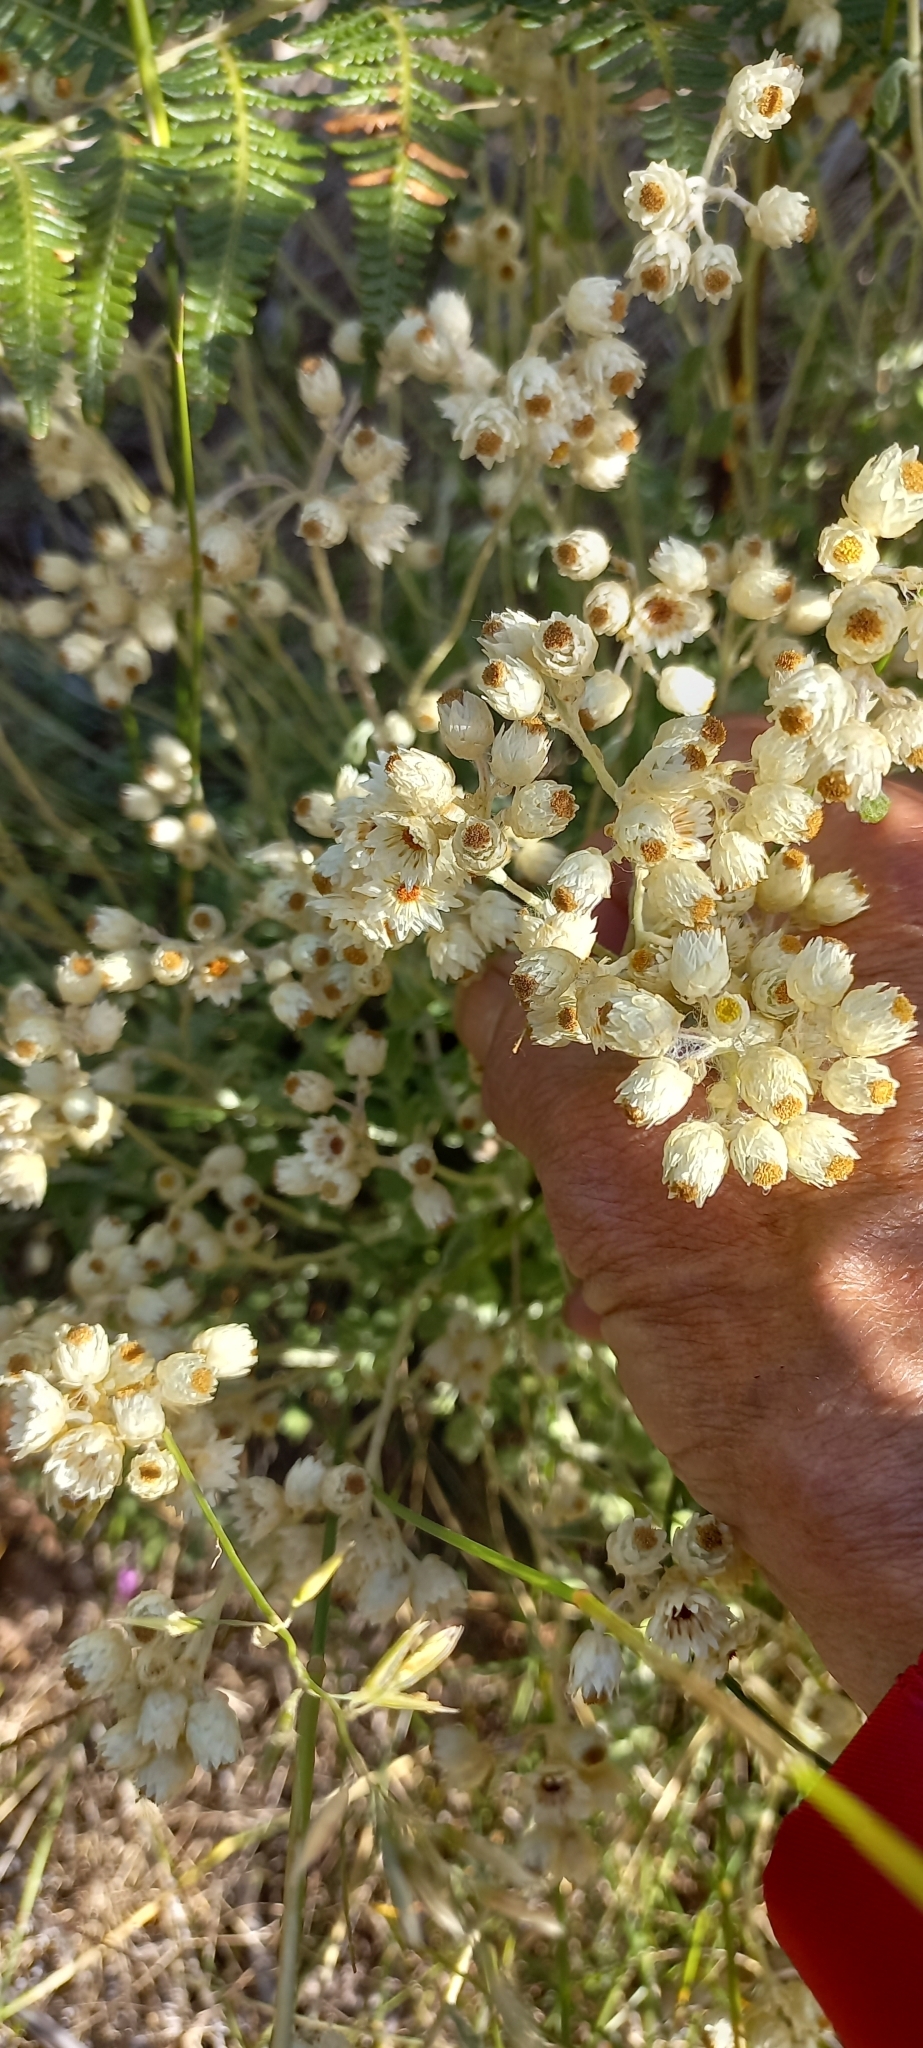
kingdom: Plantae
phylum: Tracheophyta
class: Magnoliopsida
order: Asterales
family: Asteraceae
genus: Helichrysum
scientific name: Helichrysum pandurifolium
